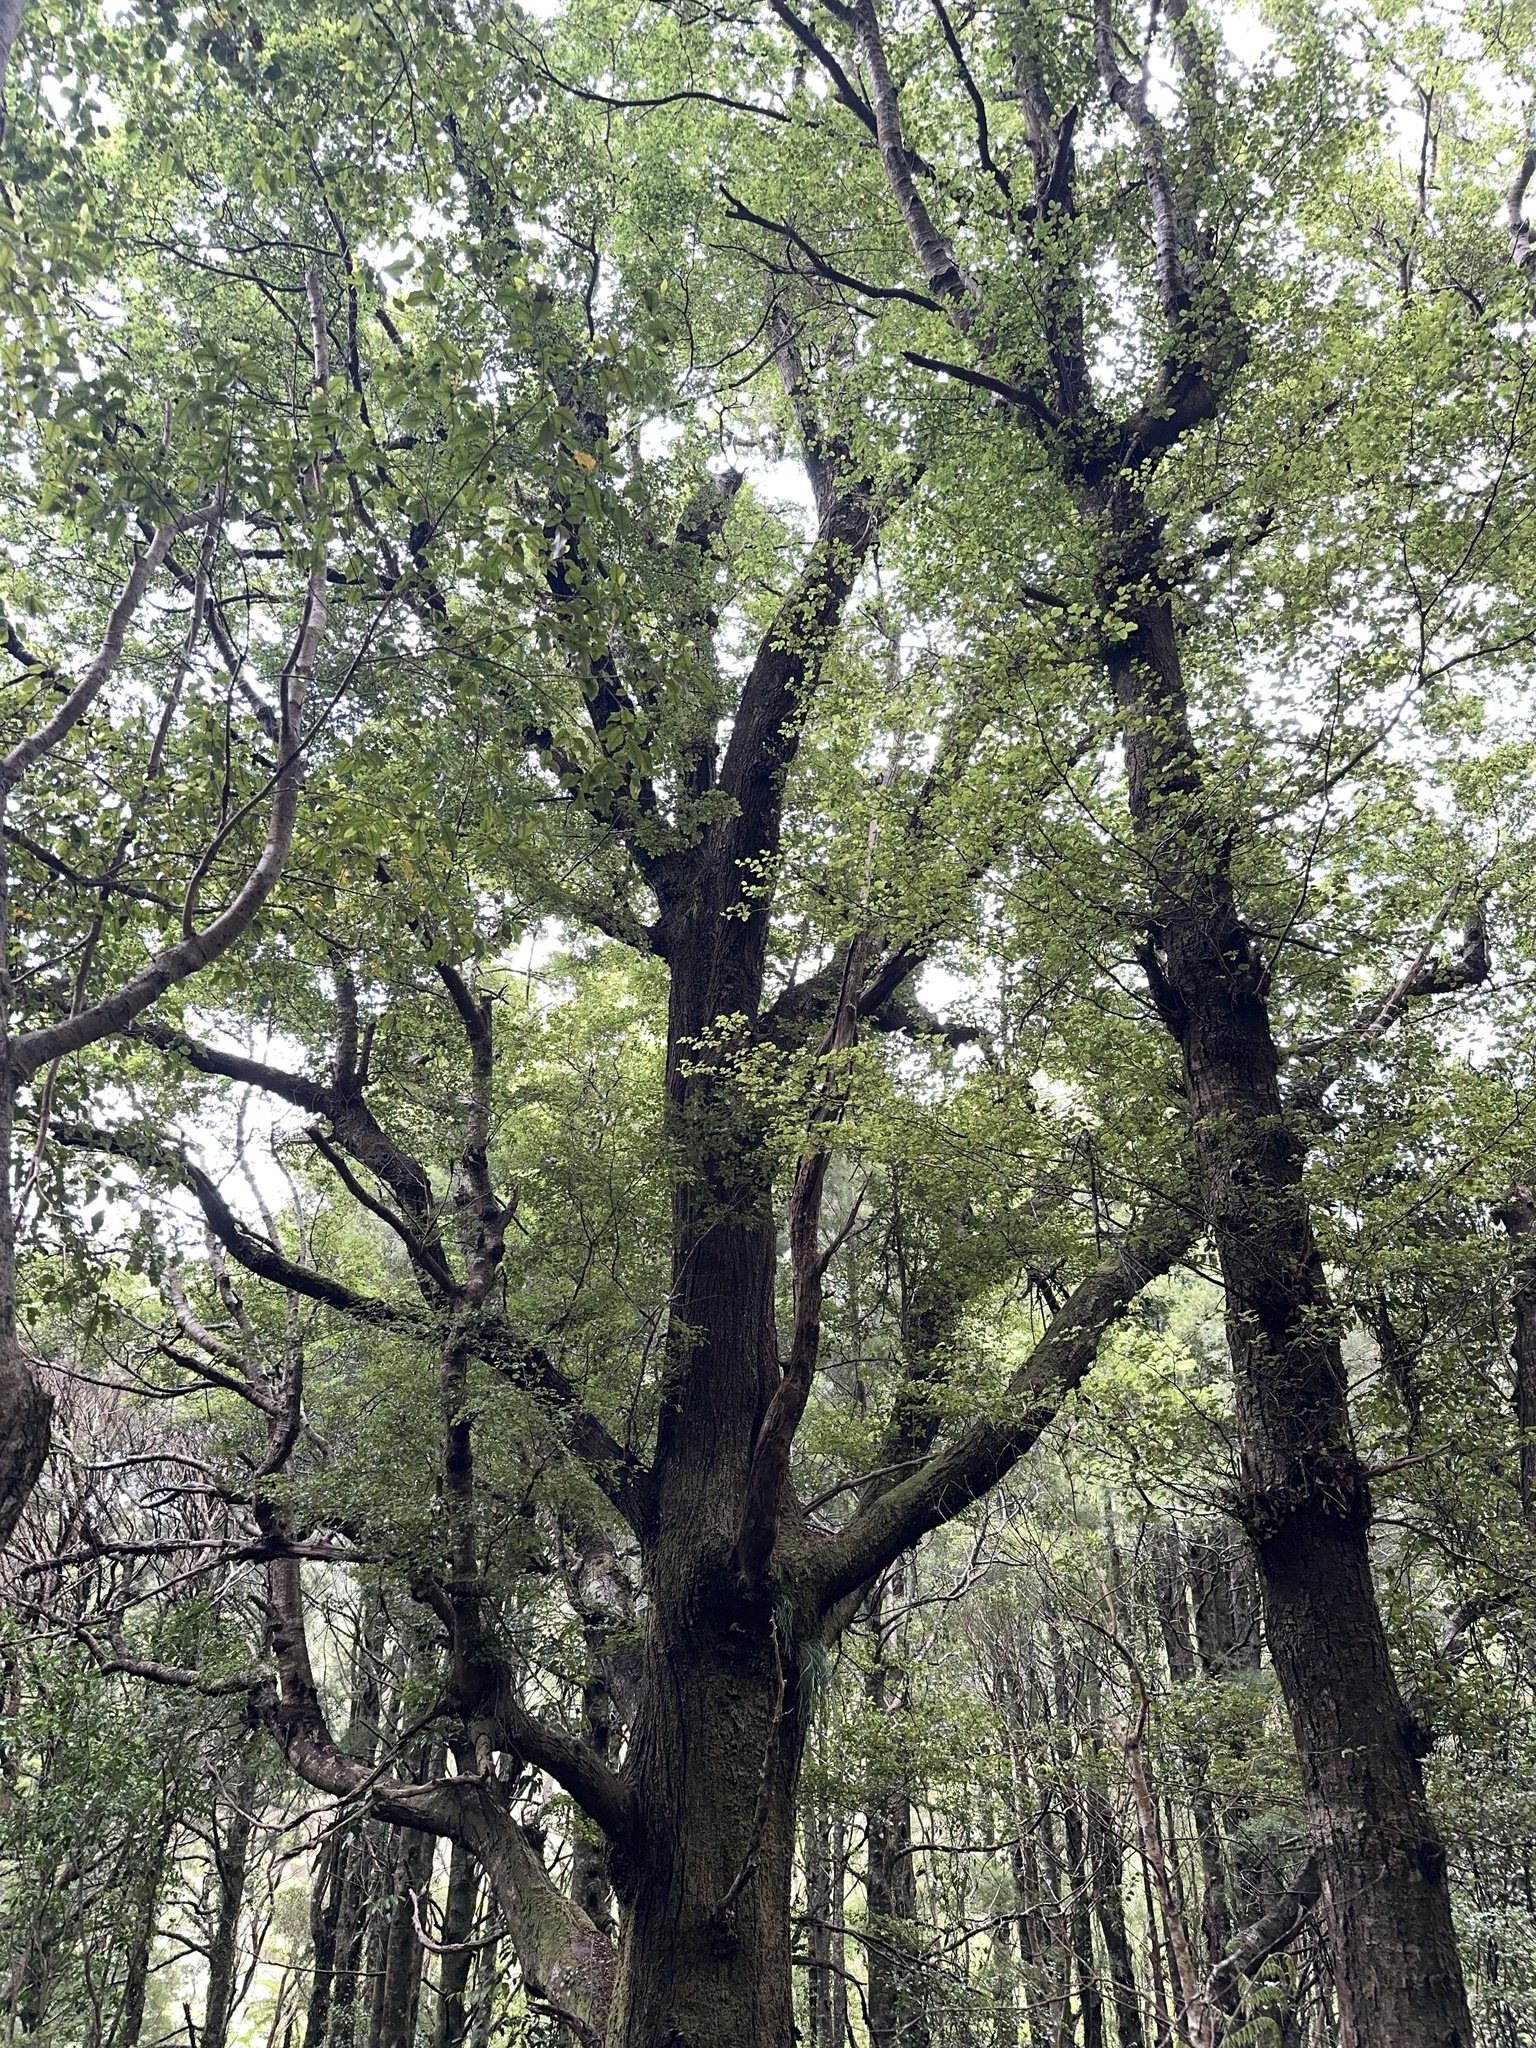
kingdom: Plantae
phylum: Tracheophyta
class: Magnoliopsida
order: Fagales
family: Nothofagaceae
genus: Nothofagus
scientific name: Nothofagus truncata
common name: Hard beech
